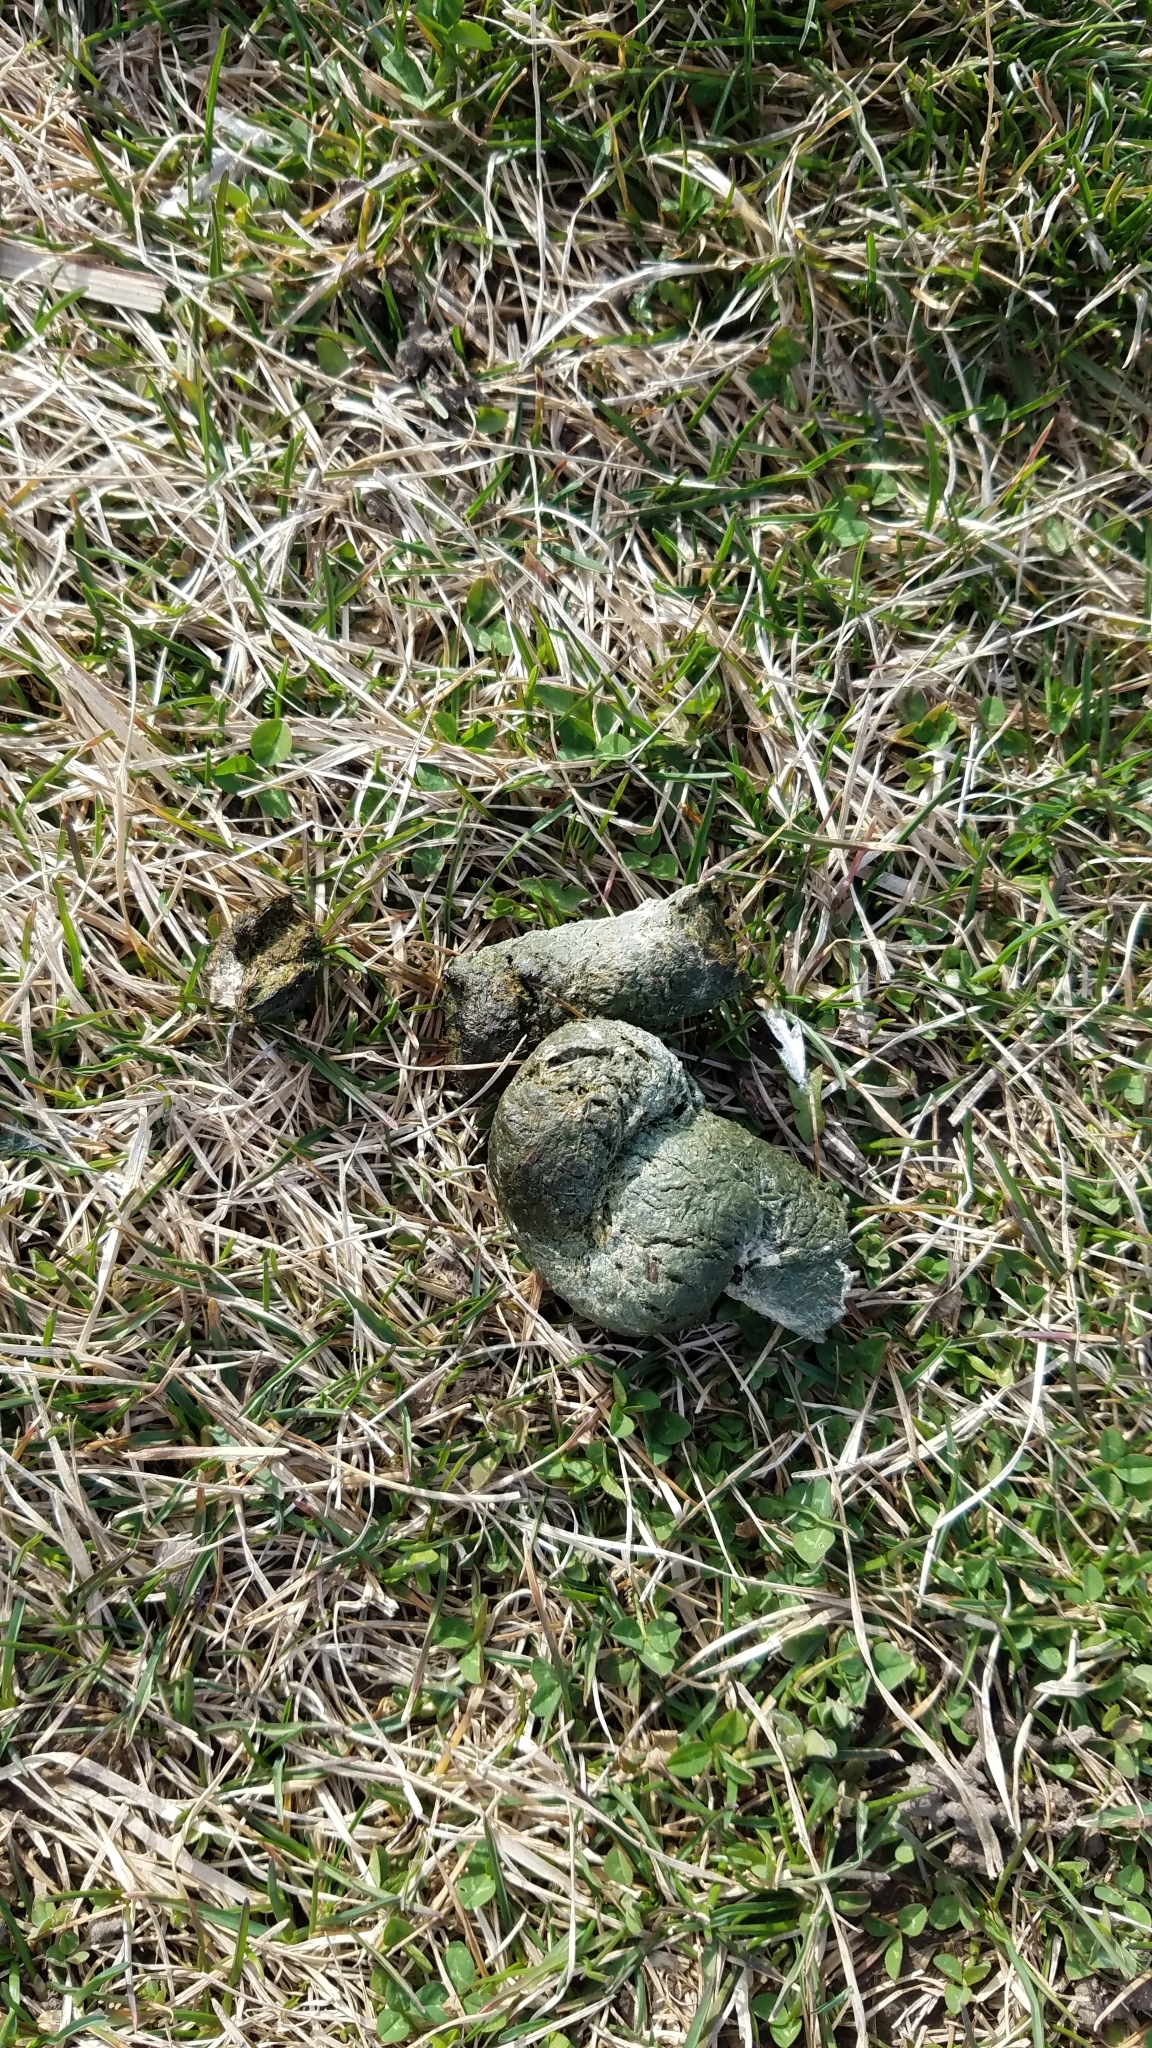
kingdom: Animalia
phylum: Chordata
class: Aves
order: Anseriformes
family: Anatidae
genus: Branta
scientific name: Branta canadensis
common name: Canada goose
